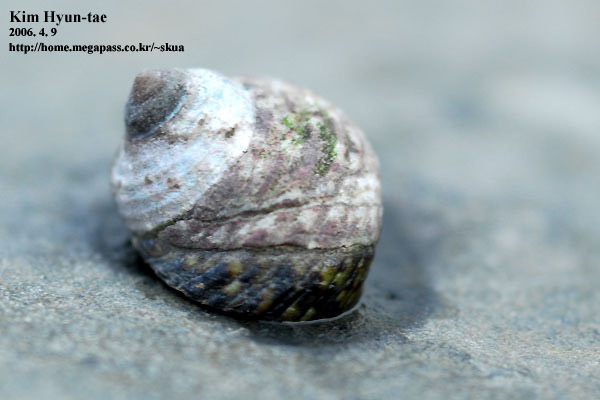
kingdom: Animalia
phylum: Mollusca
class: Gastropoda
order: Trochida
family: Trochidae
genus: Monodonta
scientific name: Monodonta confusa
